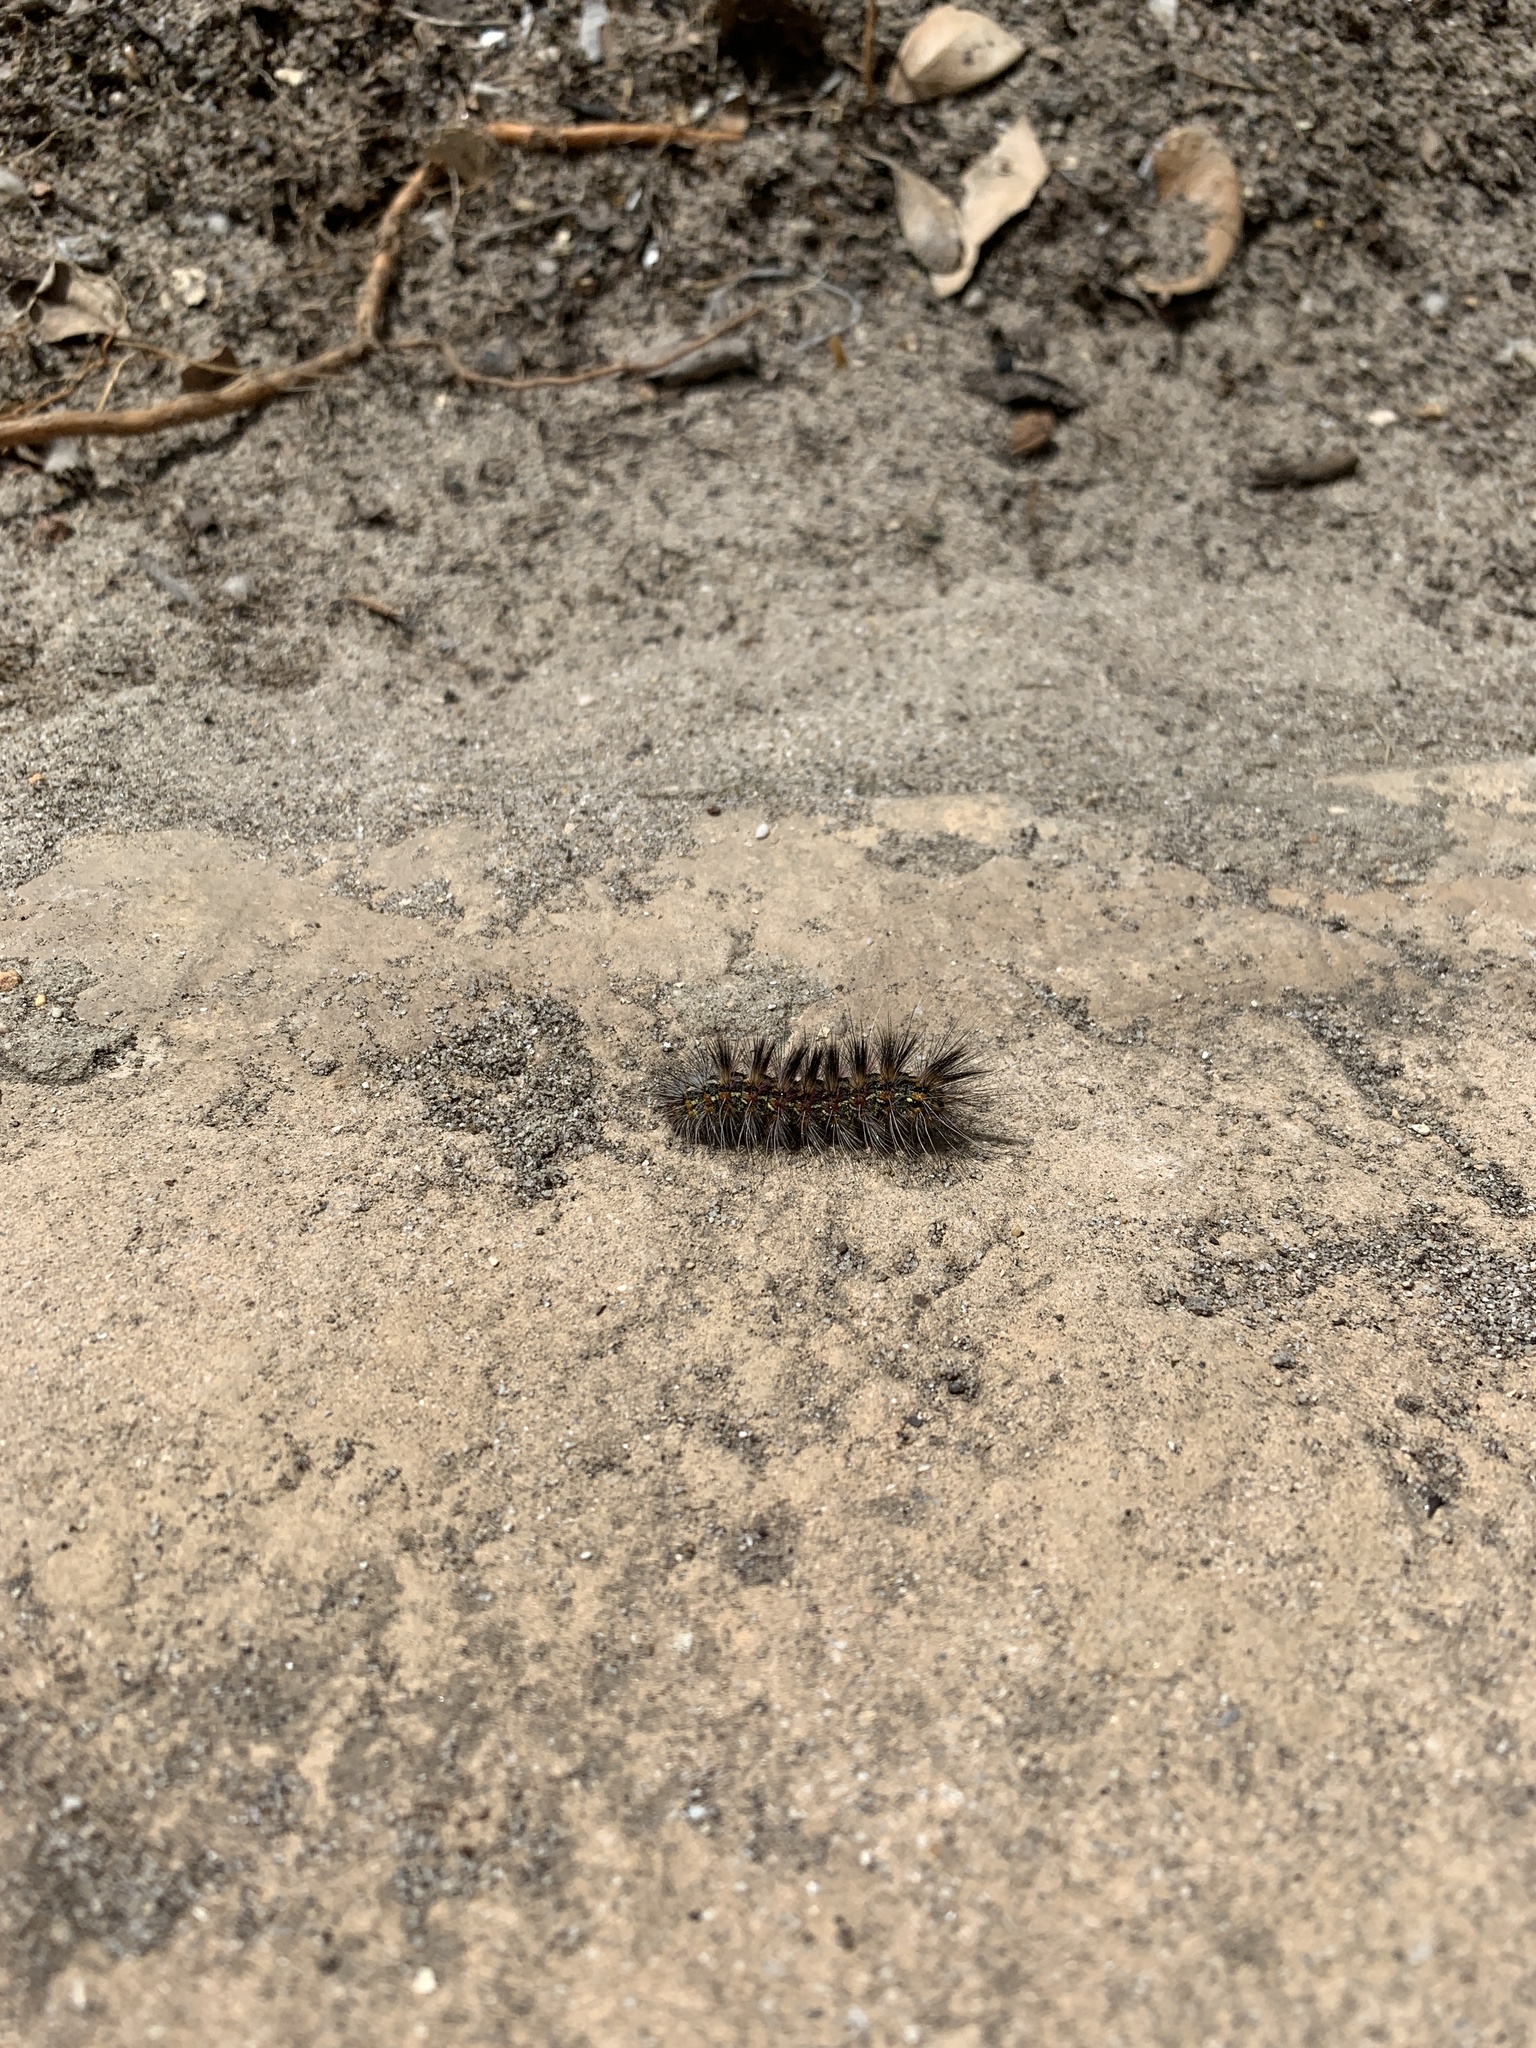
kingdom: Animalia
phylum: Arthropoda
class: Insecta
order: Lepidoptera
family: Erebidae
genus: Paralacydes
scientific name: Paralacydes vocula
